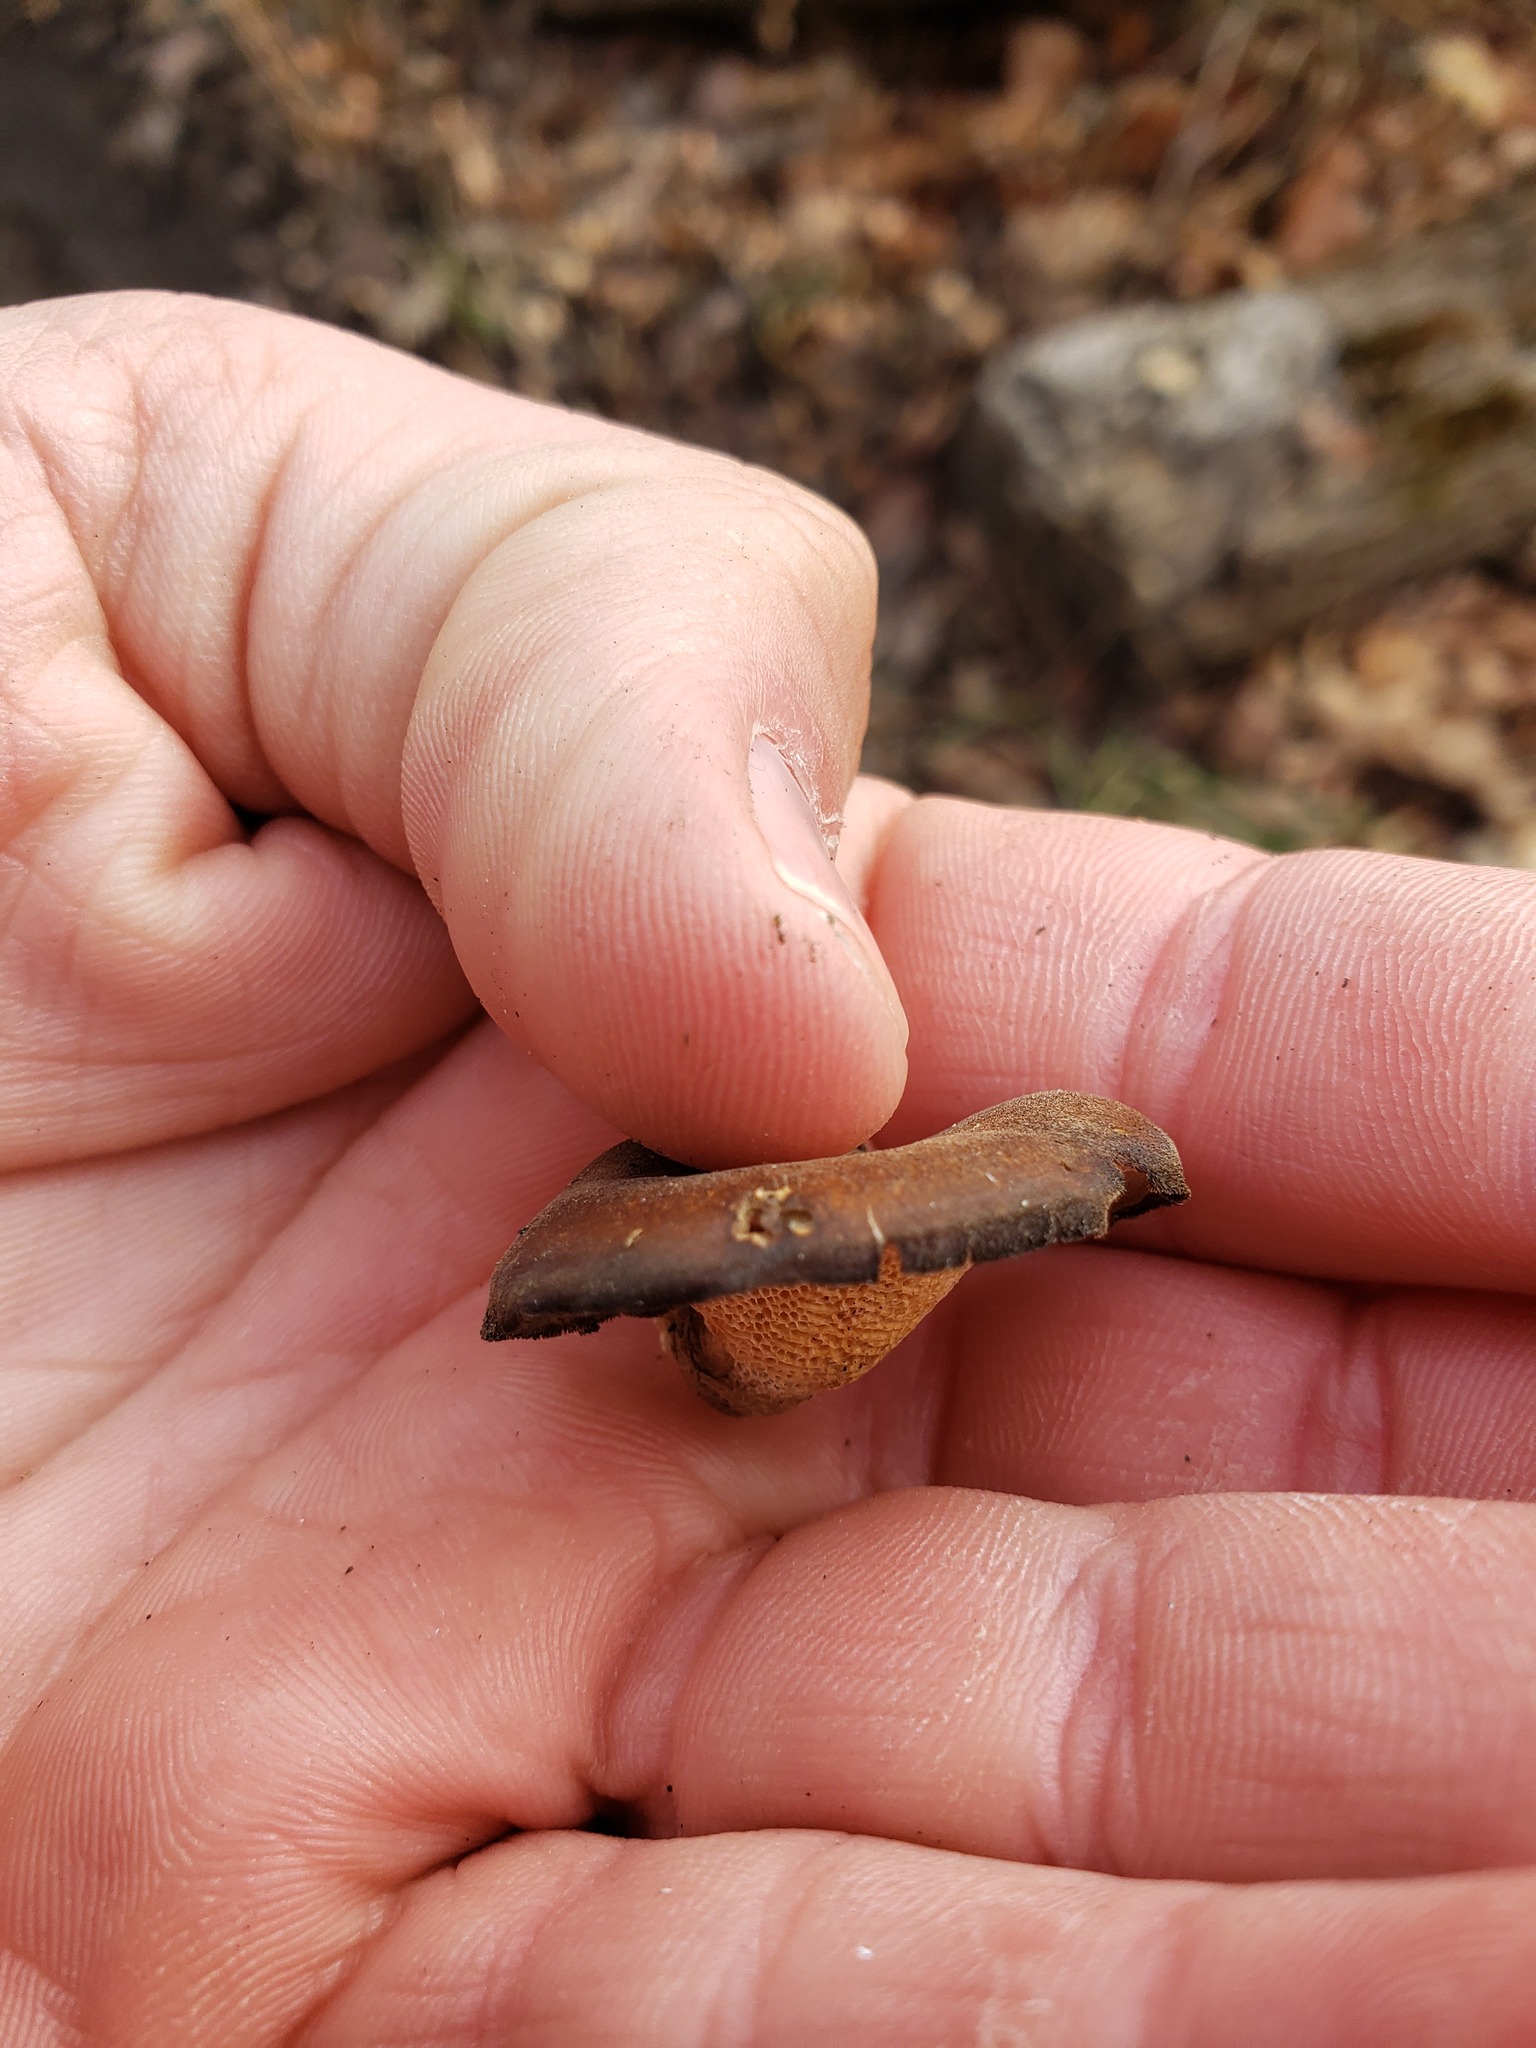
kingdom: Fungi
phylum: Basidiomycota
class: Agaricomycetes
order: Polyporales
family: Polyporaceae
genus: Lentinus
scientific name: Lentinus brumalis
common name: Winter polypore
